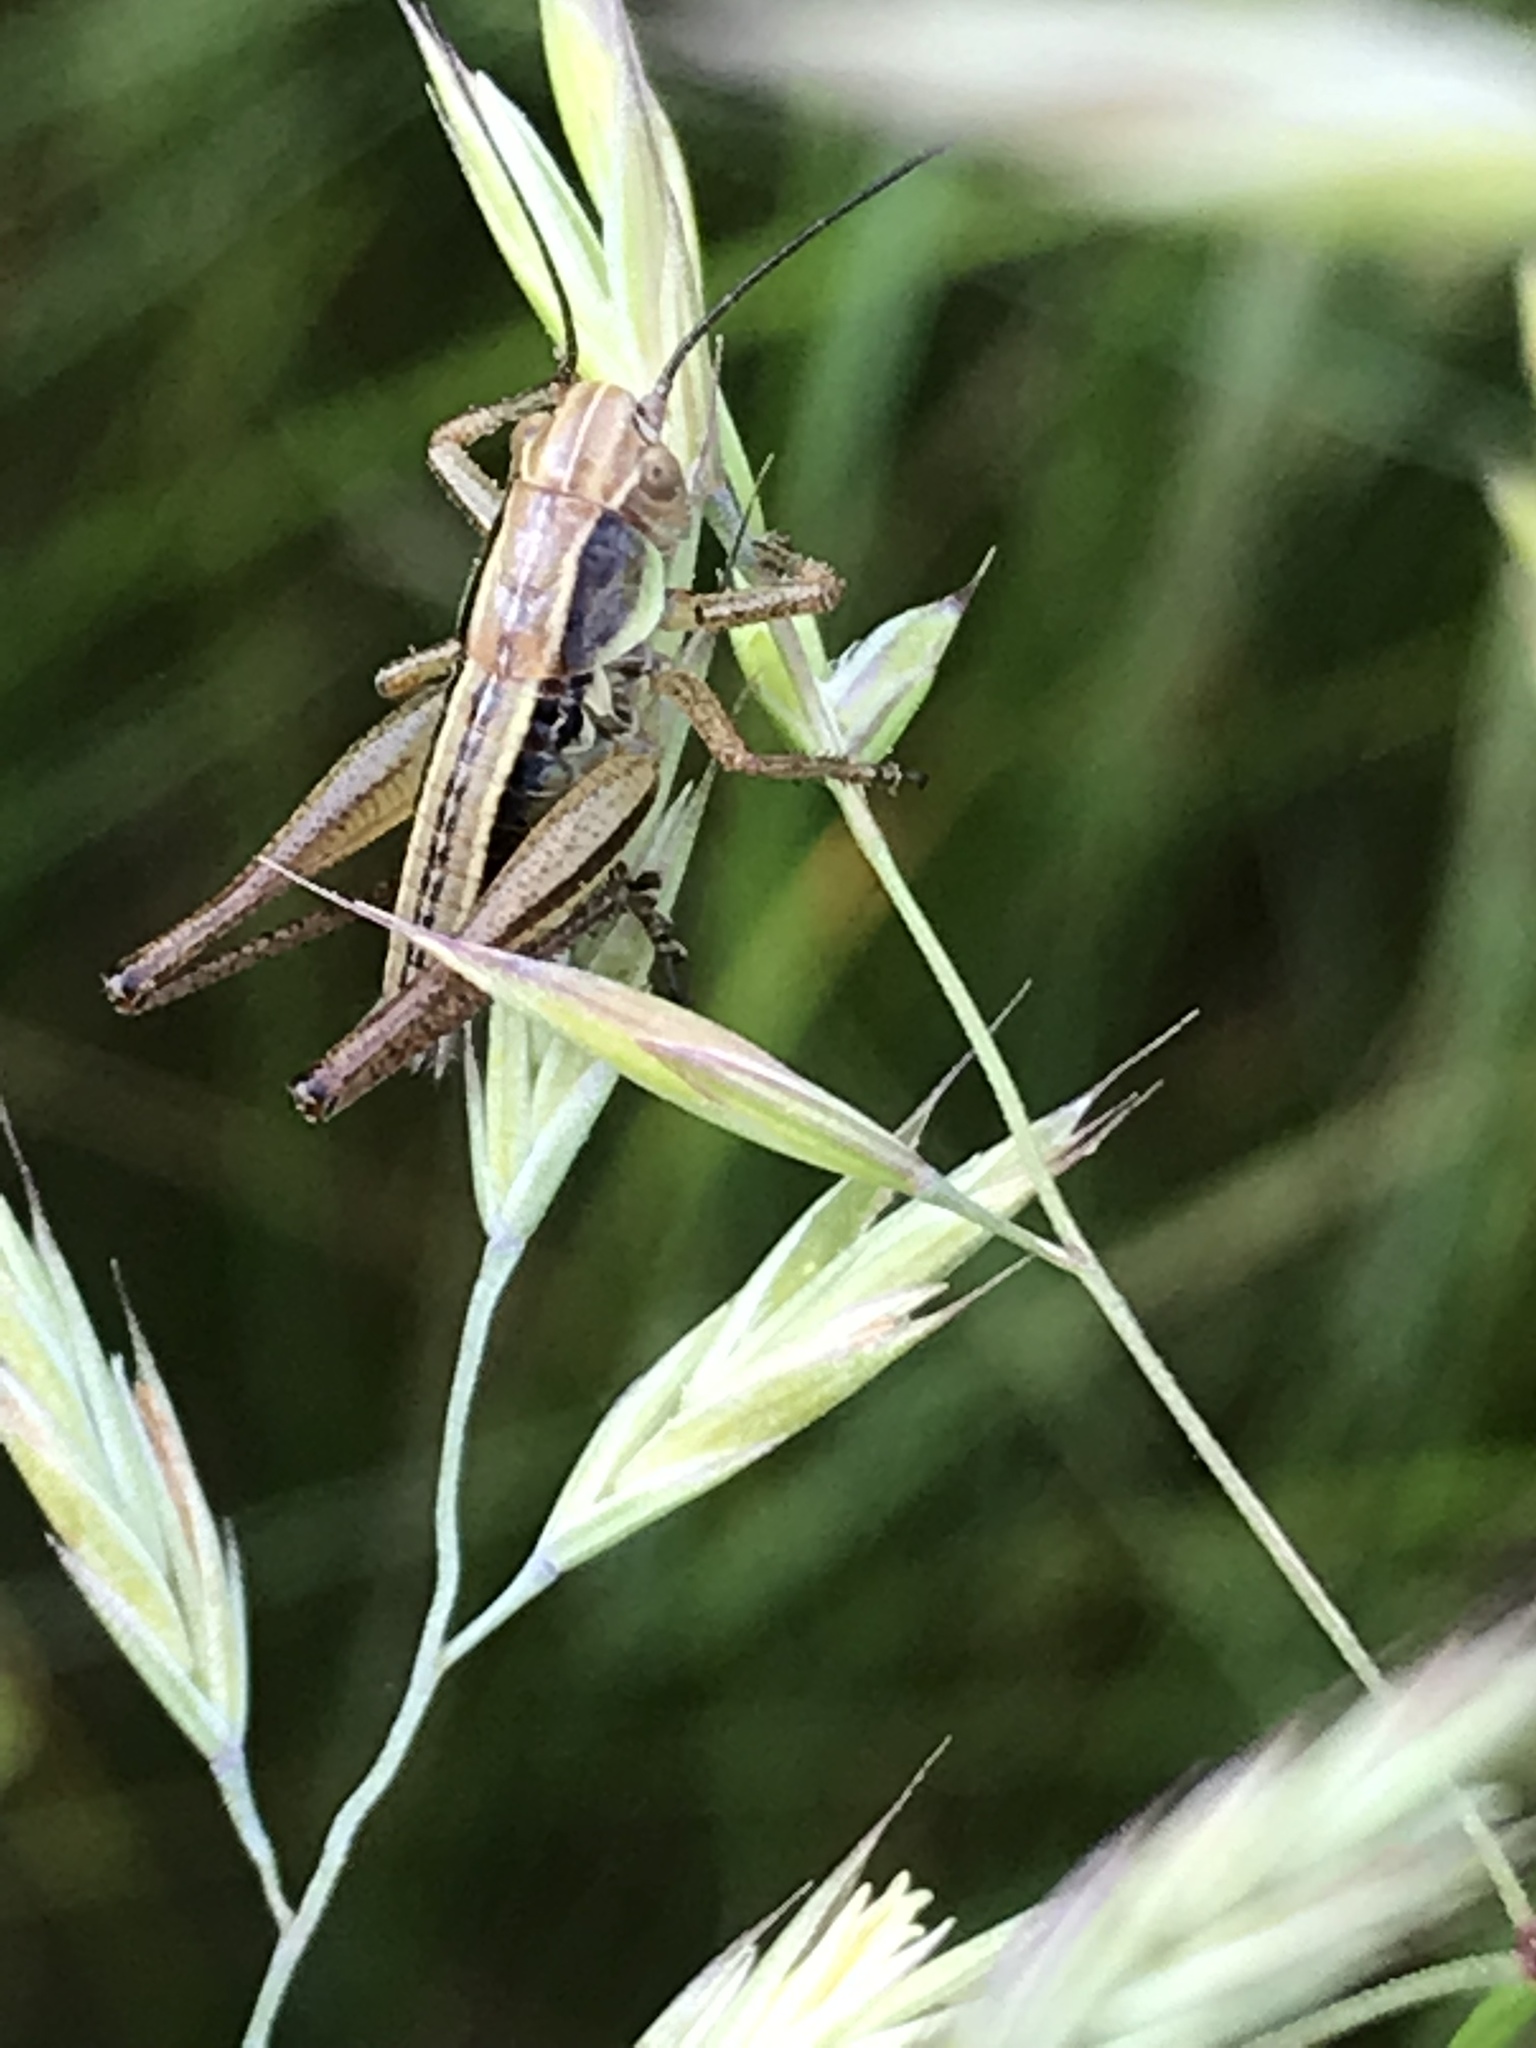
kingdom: Animalia
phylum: Arthropoda
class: Insecta
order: Orthoptera
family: Tettigoniidae
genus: Roeseliana
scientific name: Roeseliana roeselii
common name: Roesel's bush cricket
